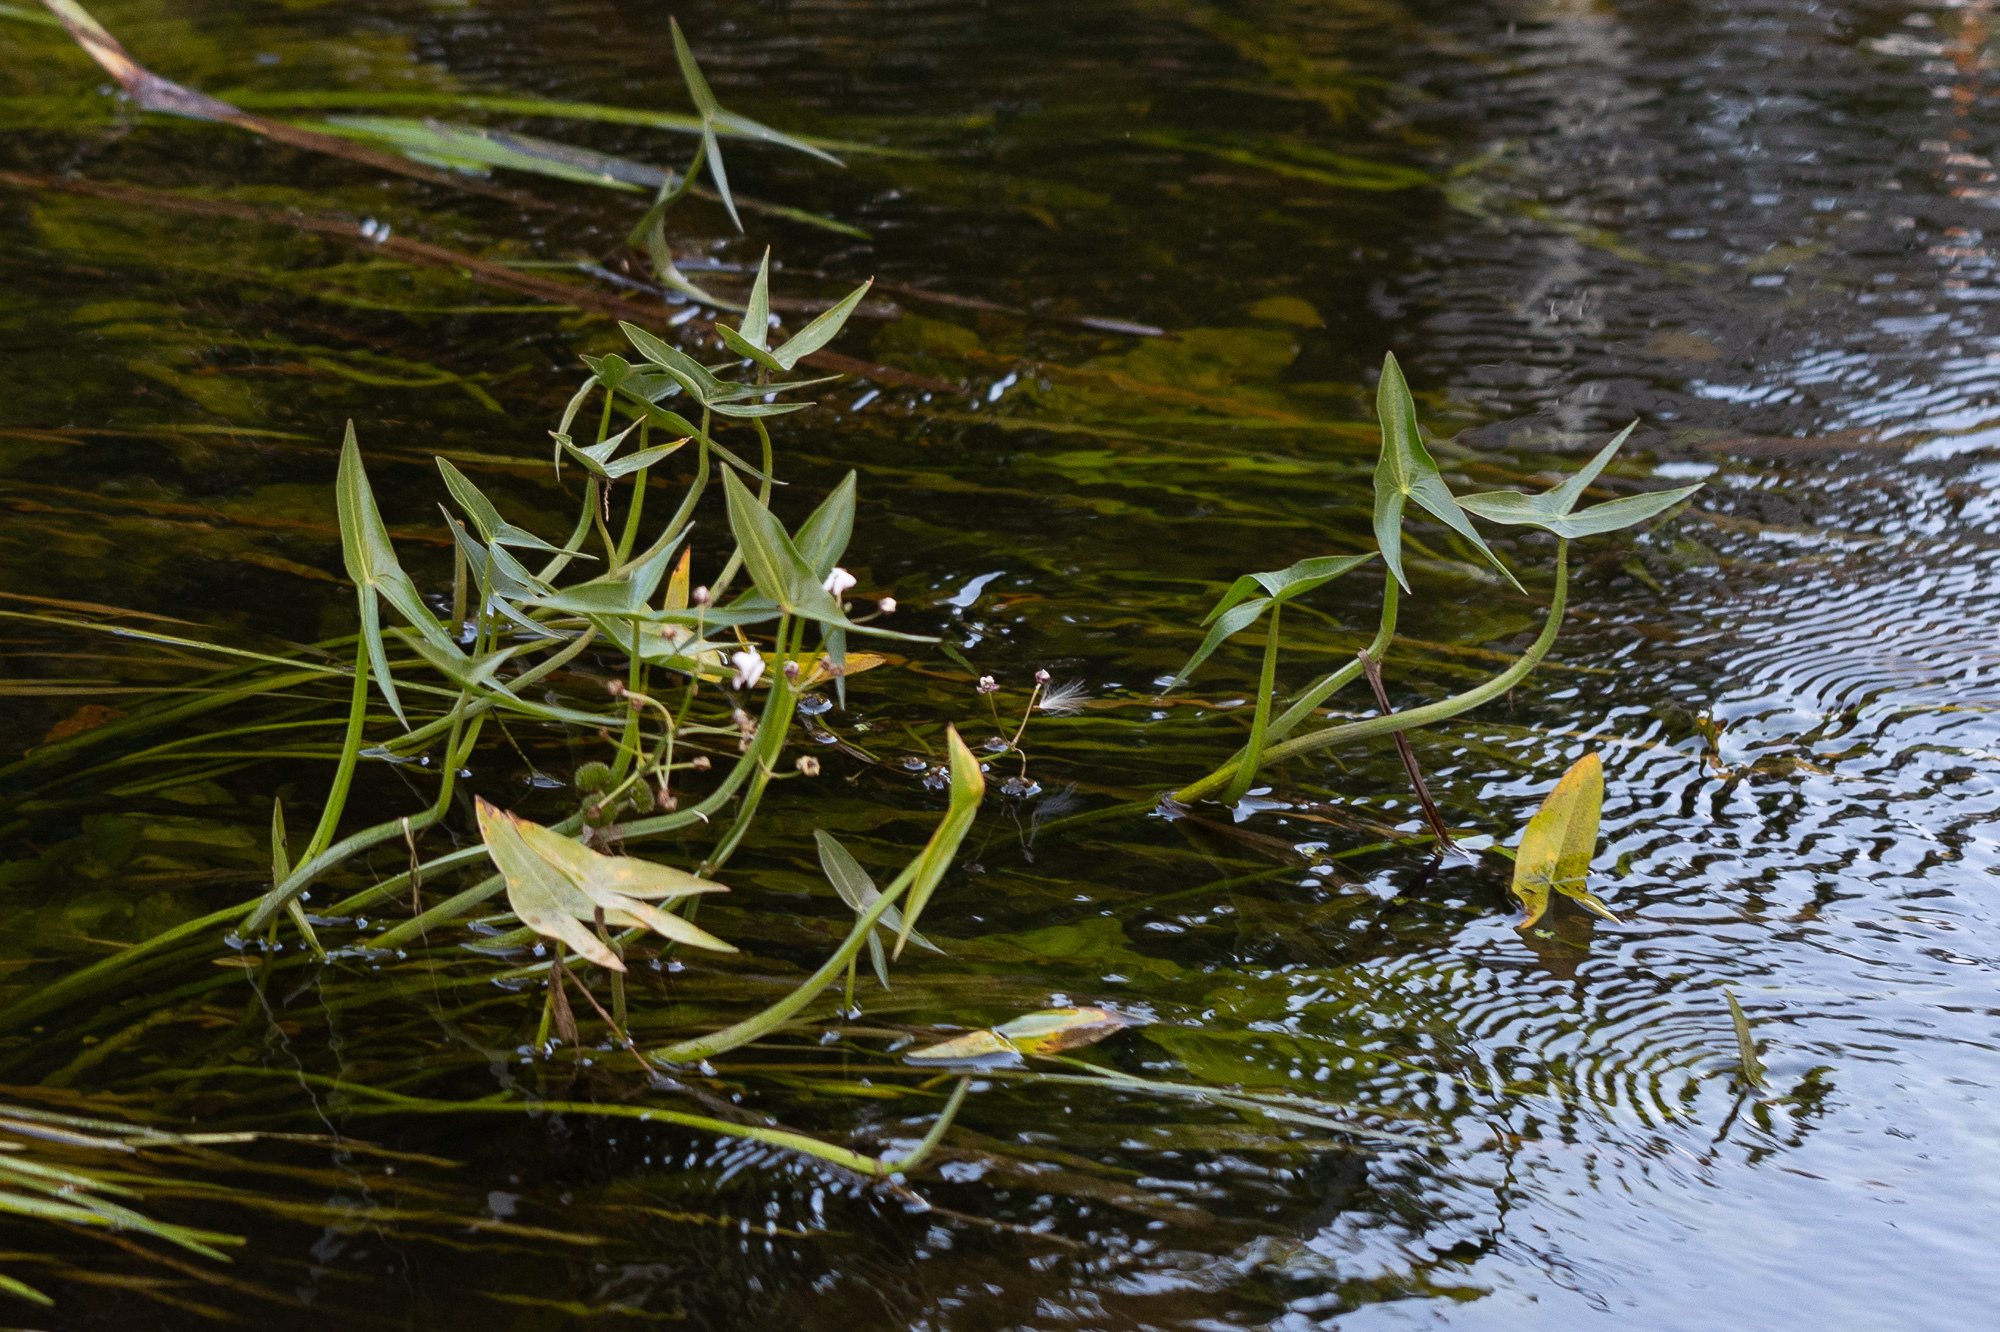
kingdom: Plantae
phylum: Tracheophyta
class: Liliopsida
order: Alismatales
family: Alismataceae
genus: Sagittaria
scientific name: Sagittaria sagittifolia
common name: Arrowhead
